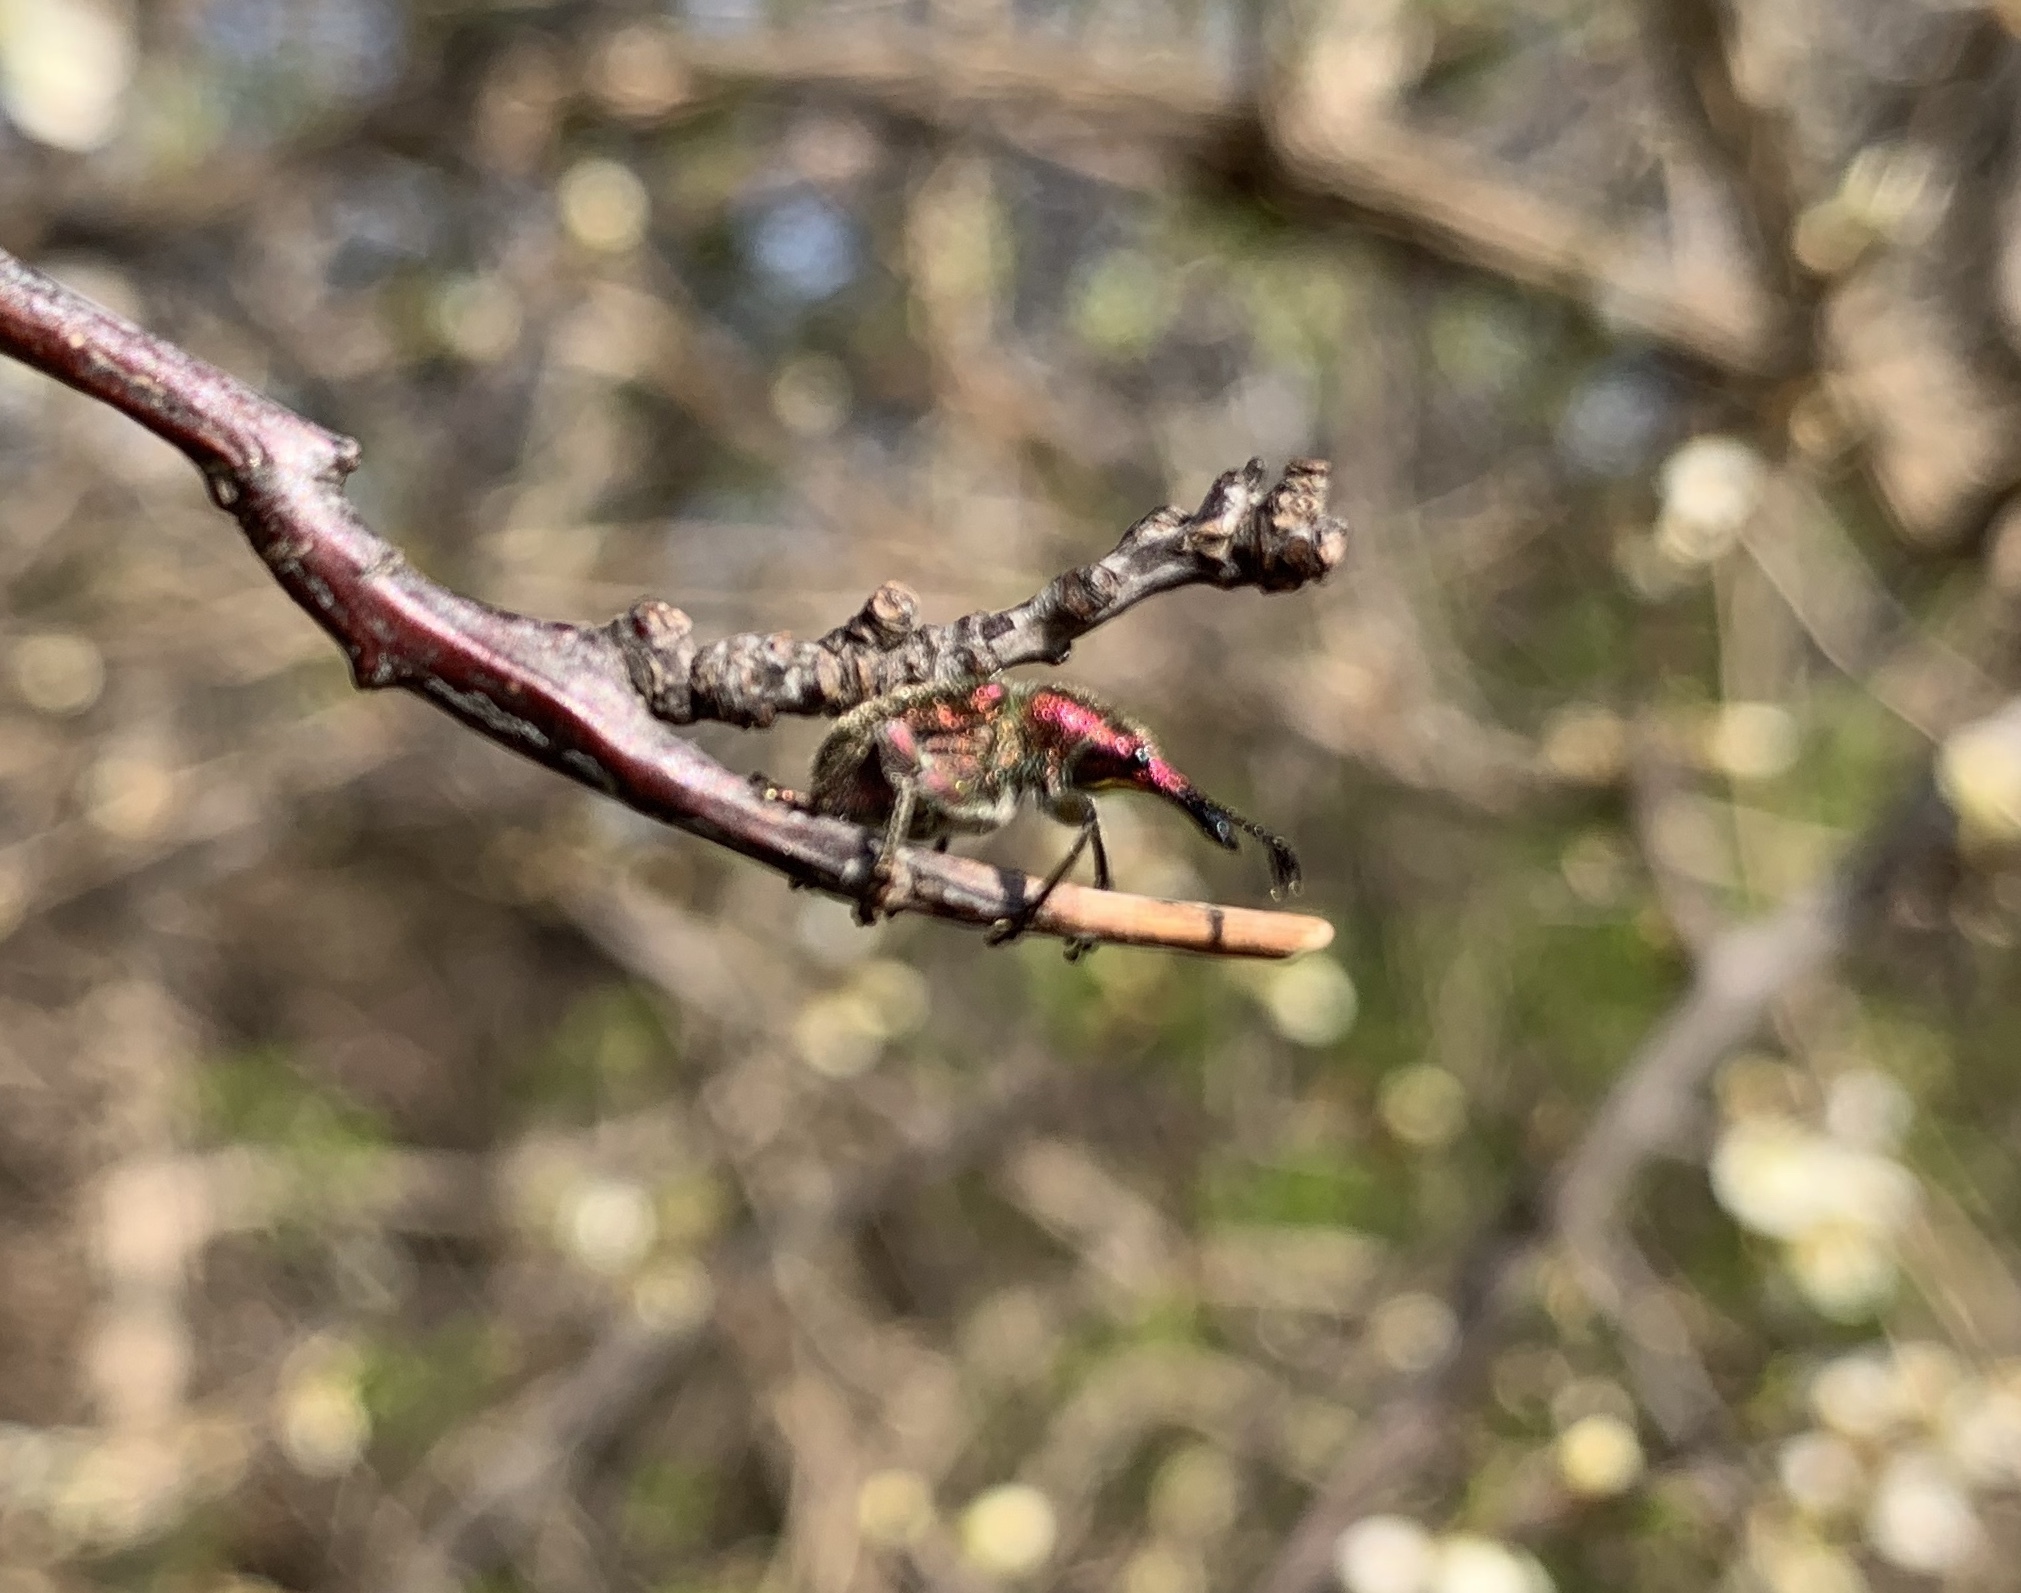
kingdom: Animalia
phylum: Arthropoda
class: Insecta
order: Coleoptera
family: Attelabidae
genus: Rhynchites
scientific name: Rhynchites auratus
